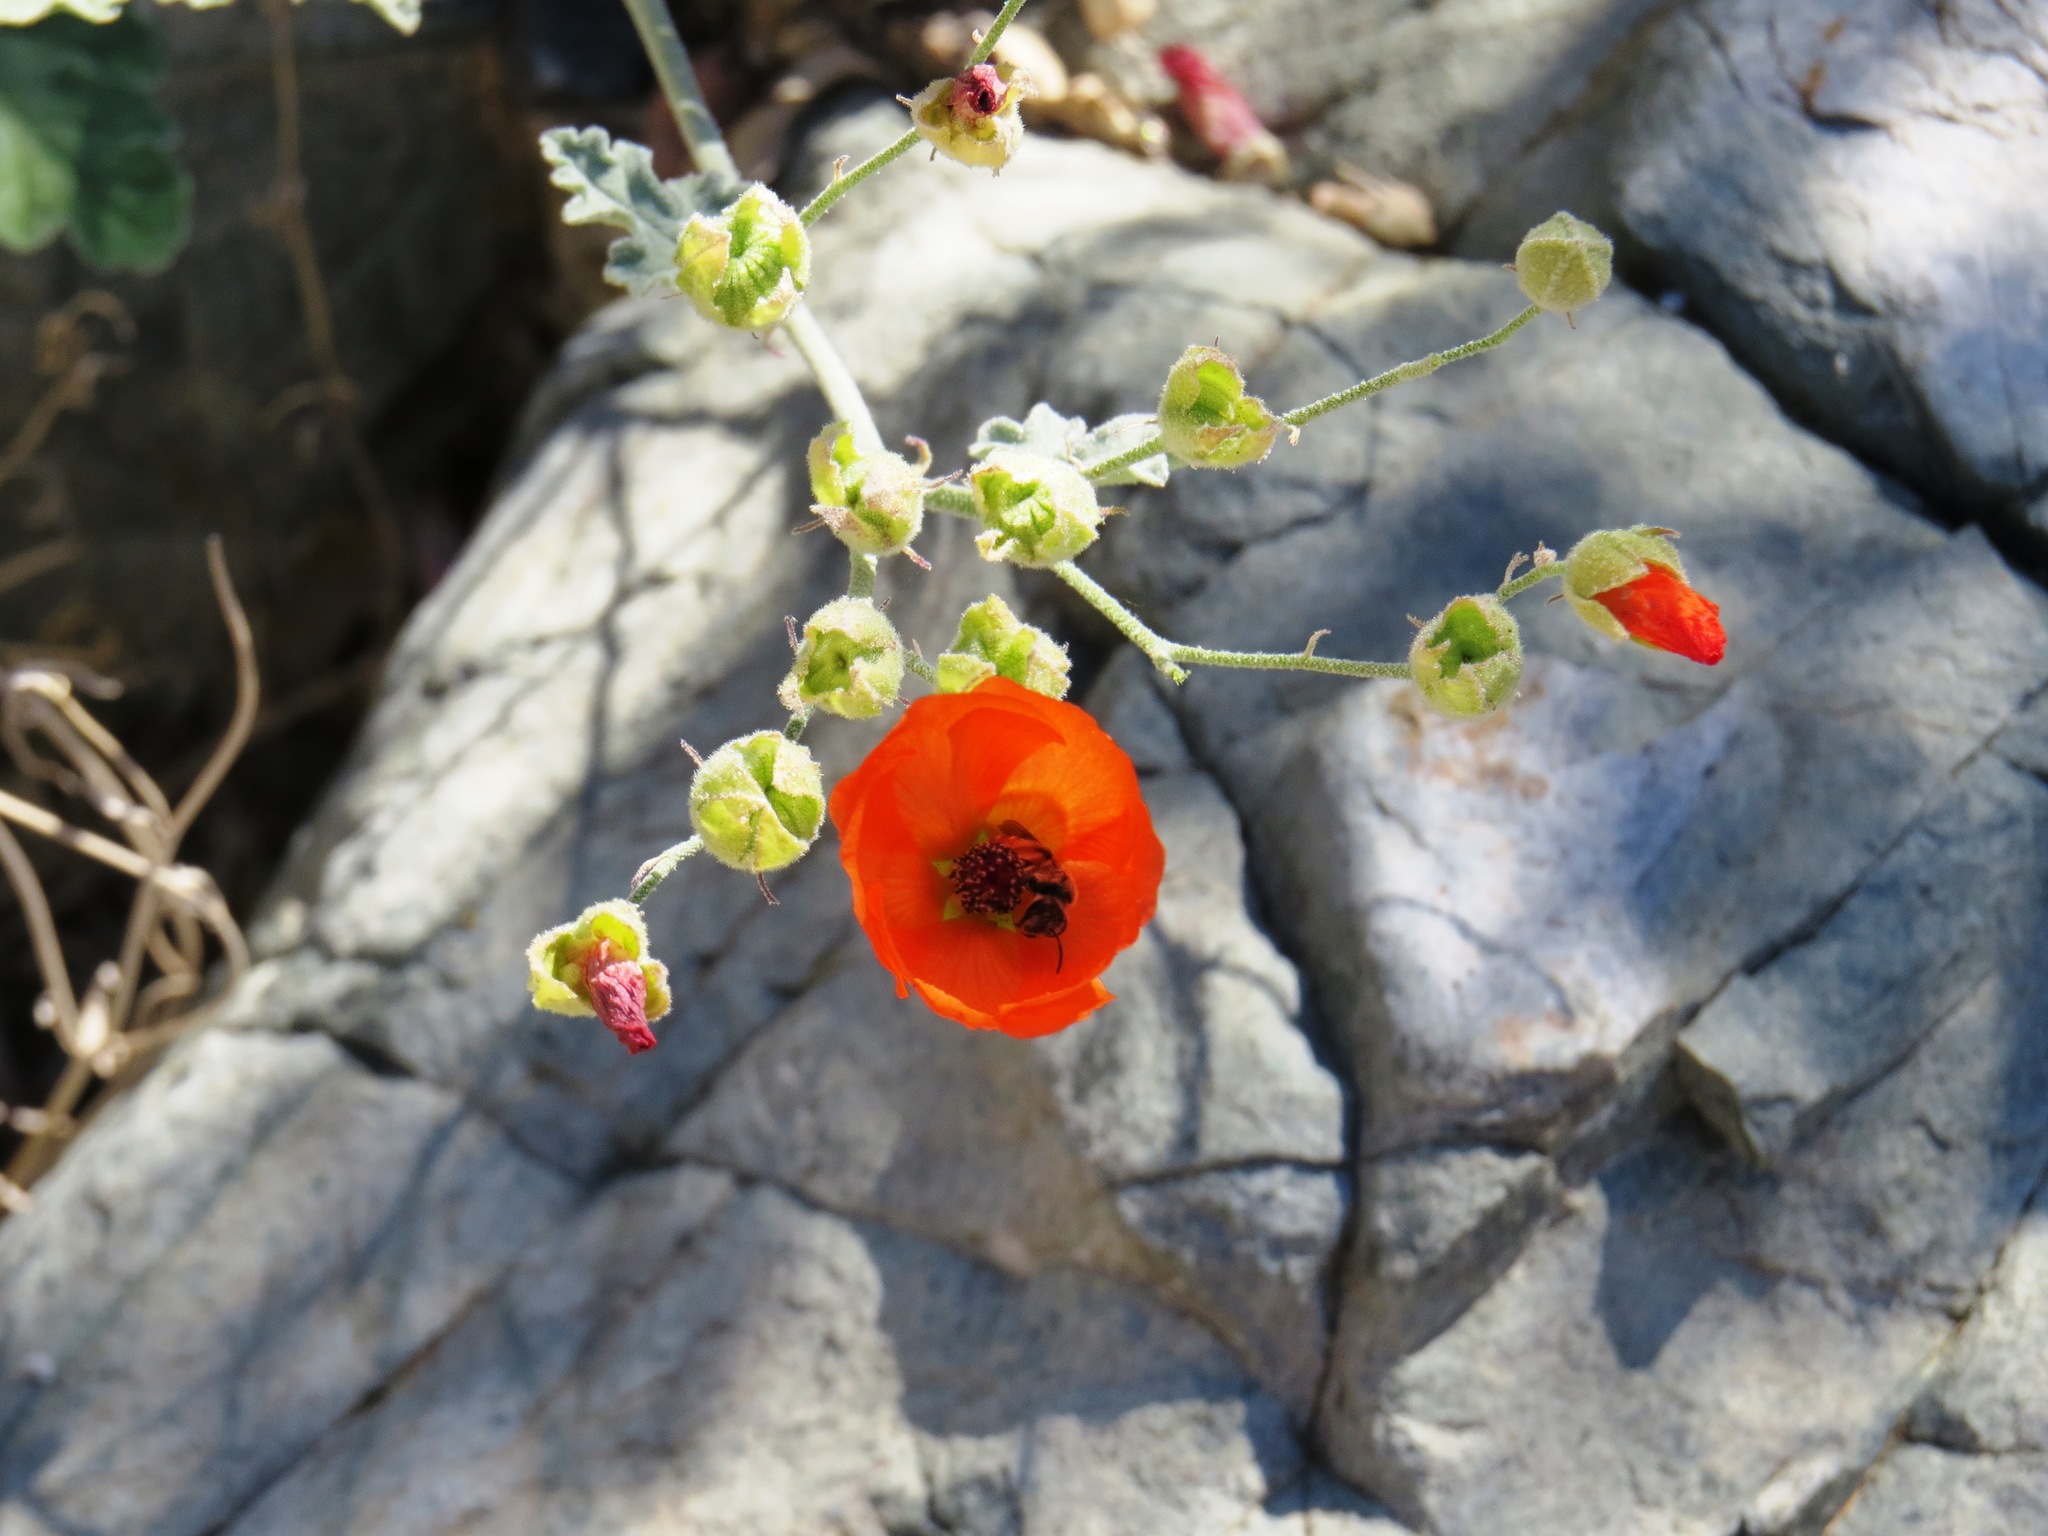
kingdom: Plantae
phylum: Tracheophyta
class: Magnoliopsida
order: Malvales
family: Malvaceae
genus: Sphaeralcea
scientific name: Sphaeralcea laxa
